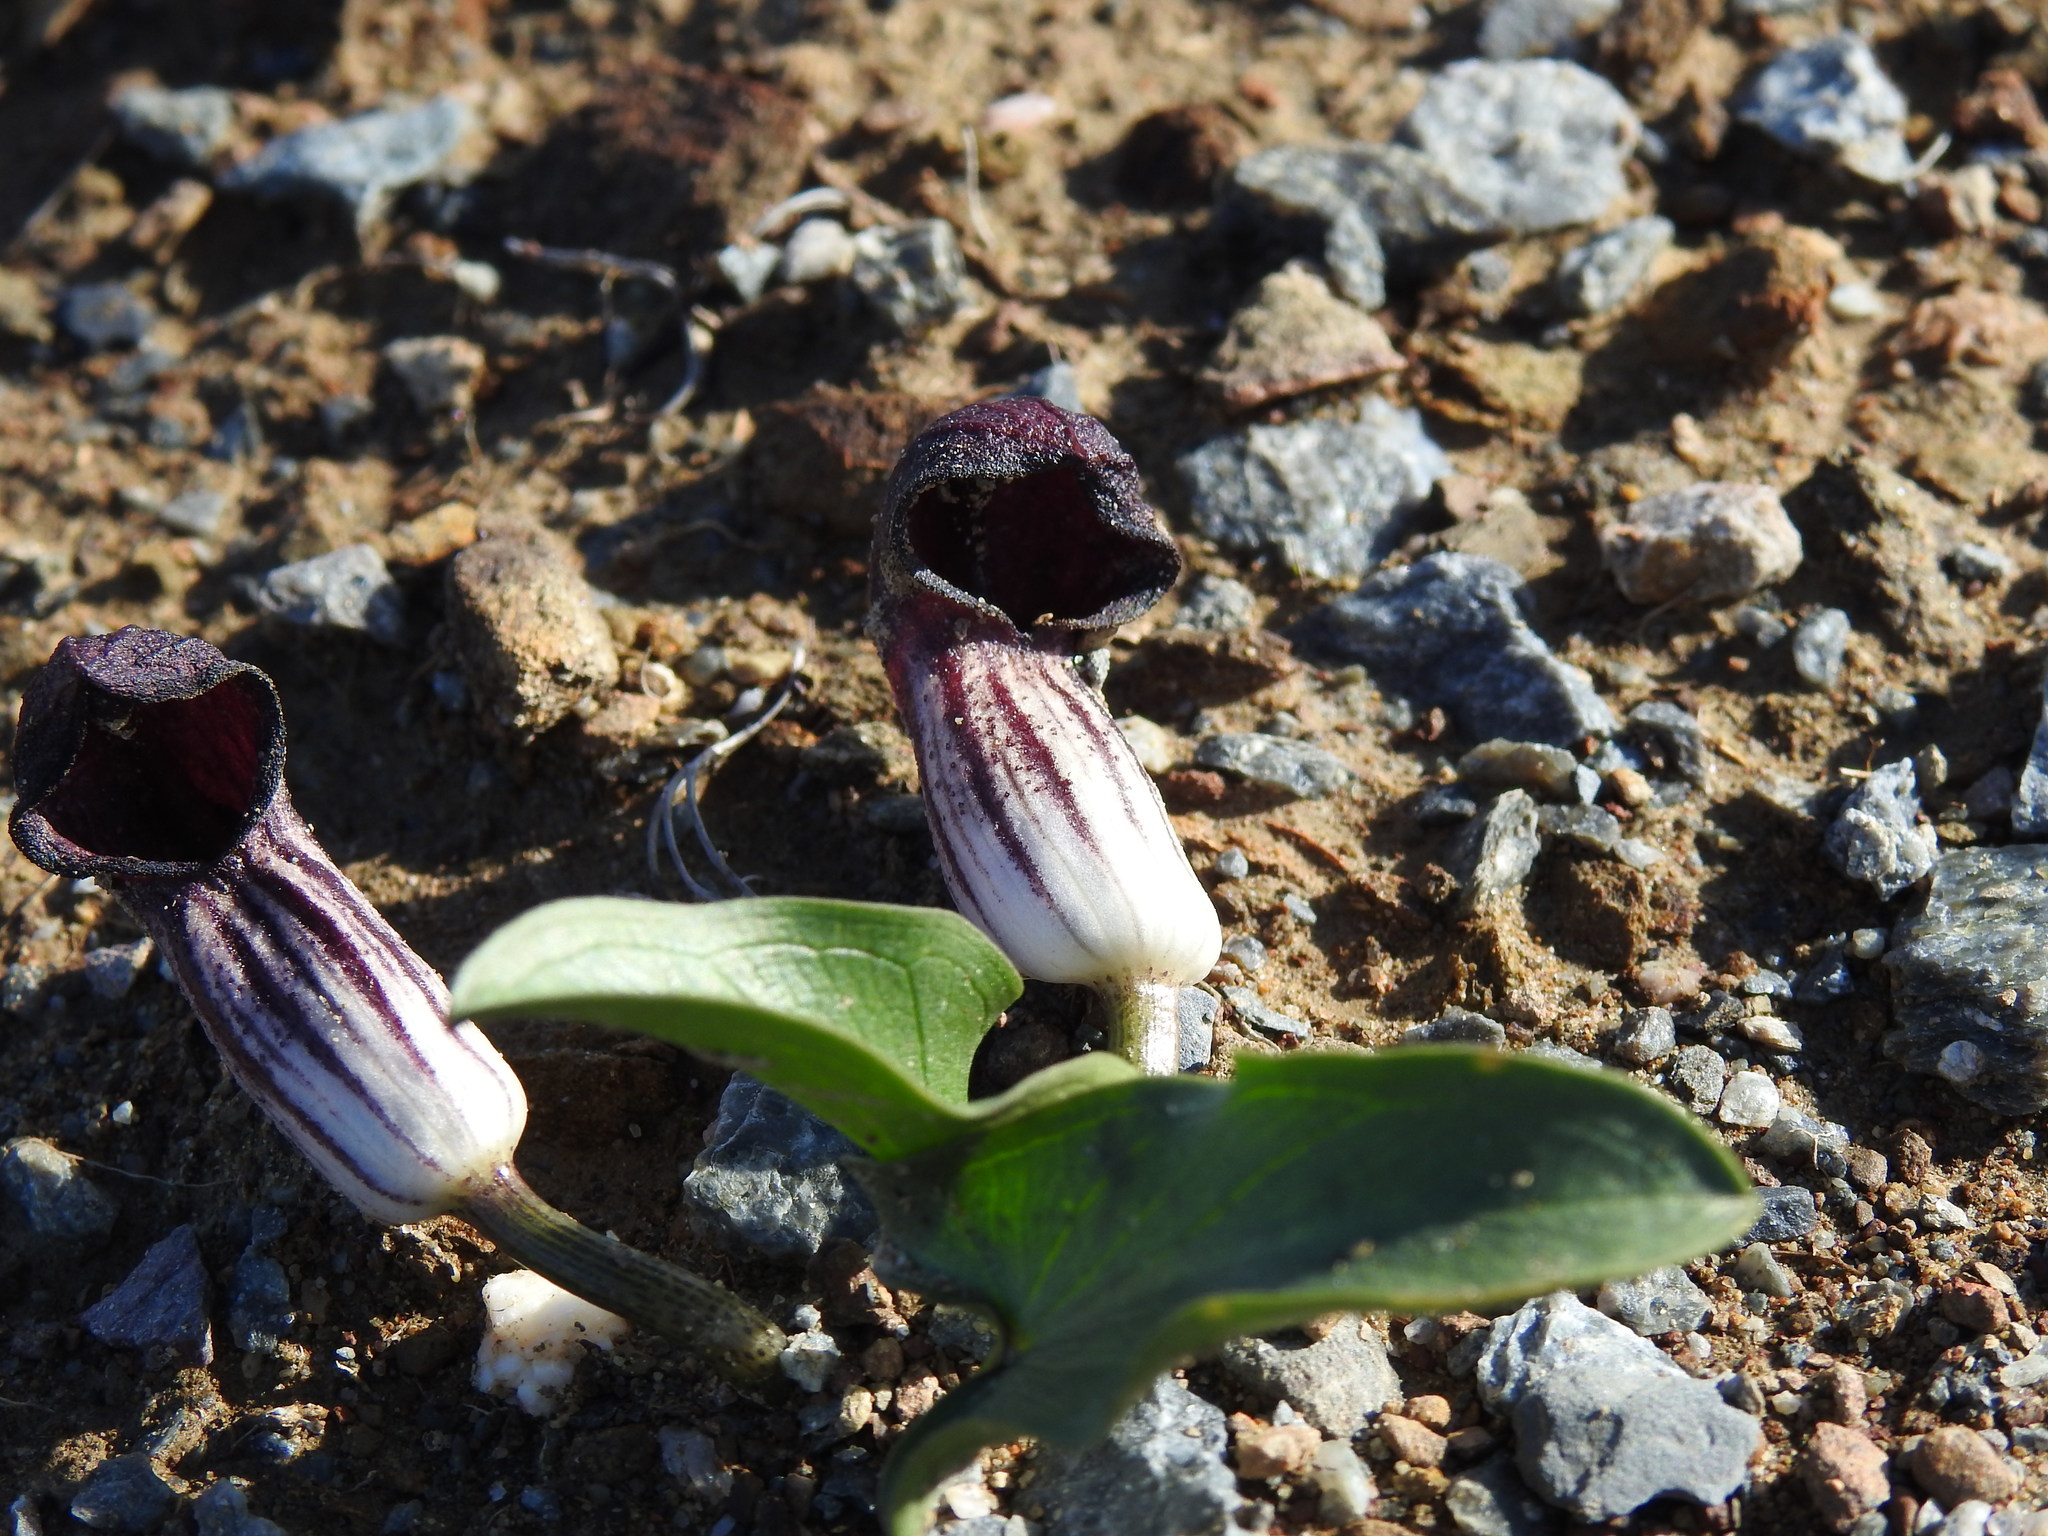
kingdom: Plantae
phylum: Tracheophyta
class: Liliopsida
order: Alismatales
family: Araceae
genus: Arisarum
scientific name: Arisarum simorrhinum
